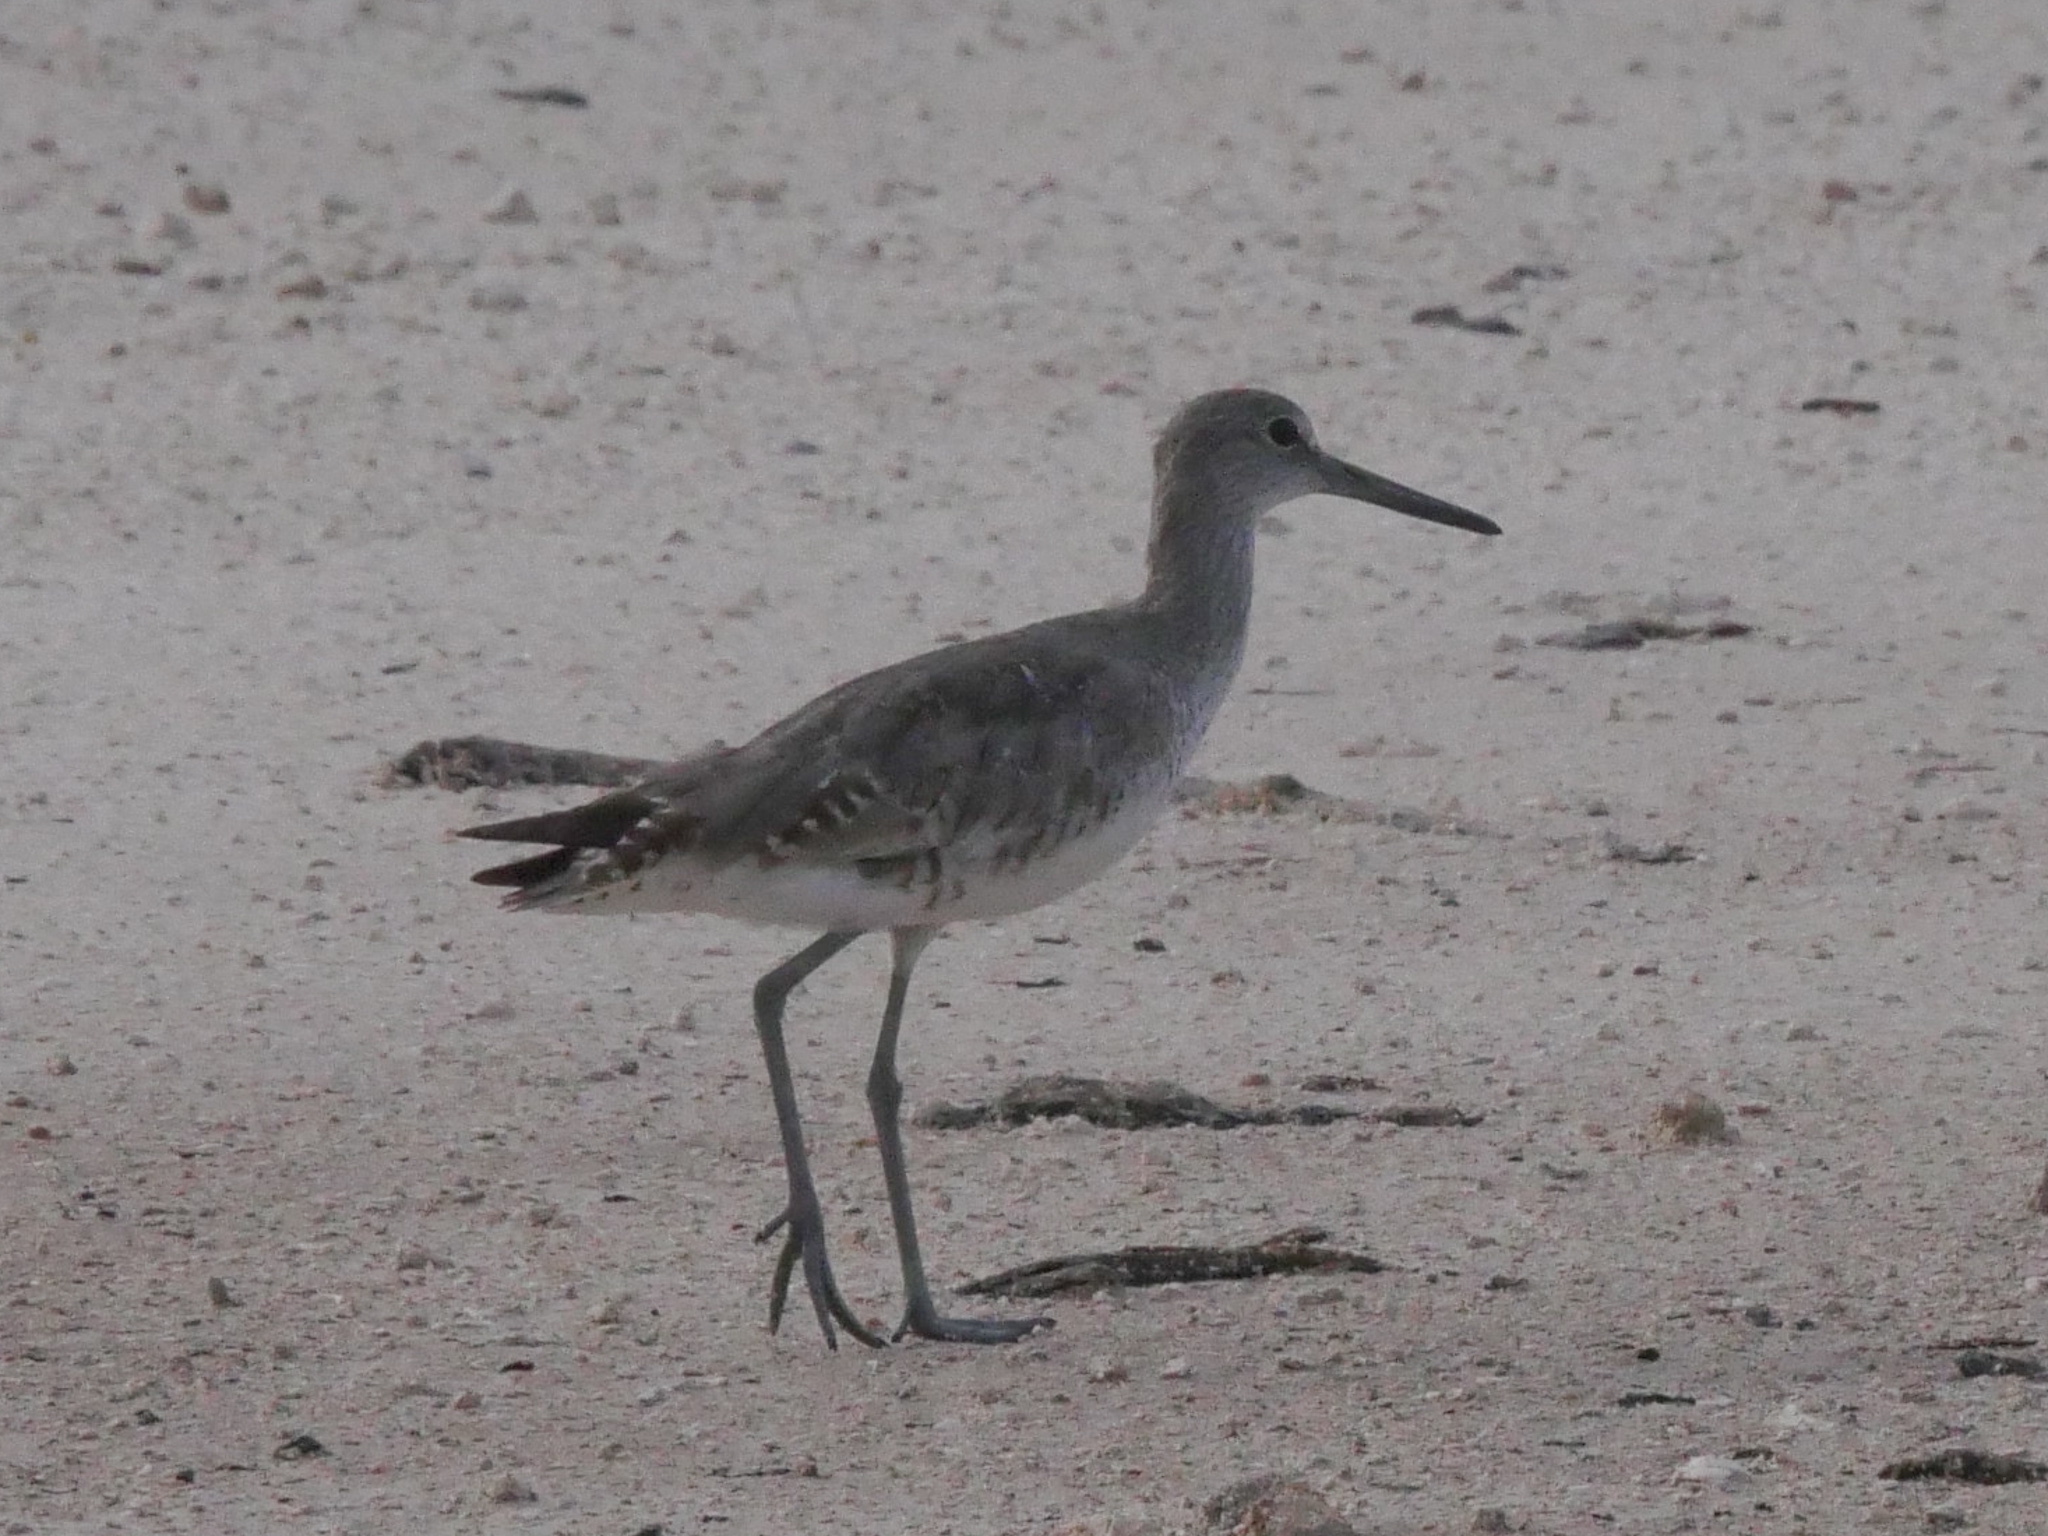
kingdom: Animalia
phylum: Chordata
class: Aves
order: Charadriiformes
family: Scolopacidae
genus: Tringa
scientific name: Tringa semipalmata
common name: Willet
